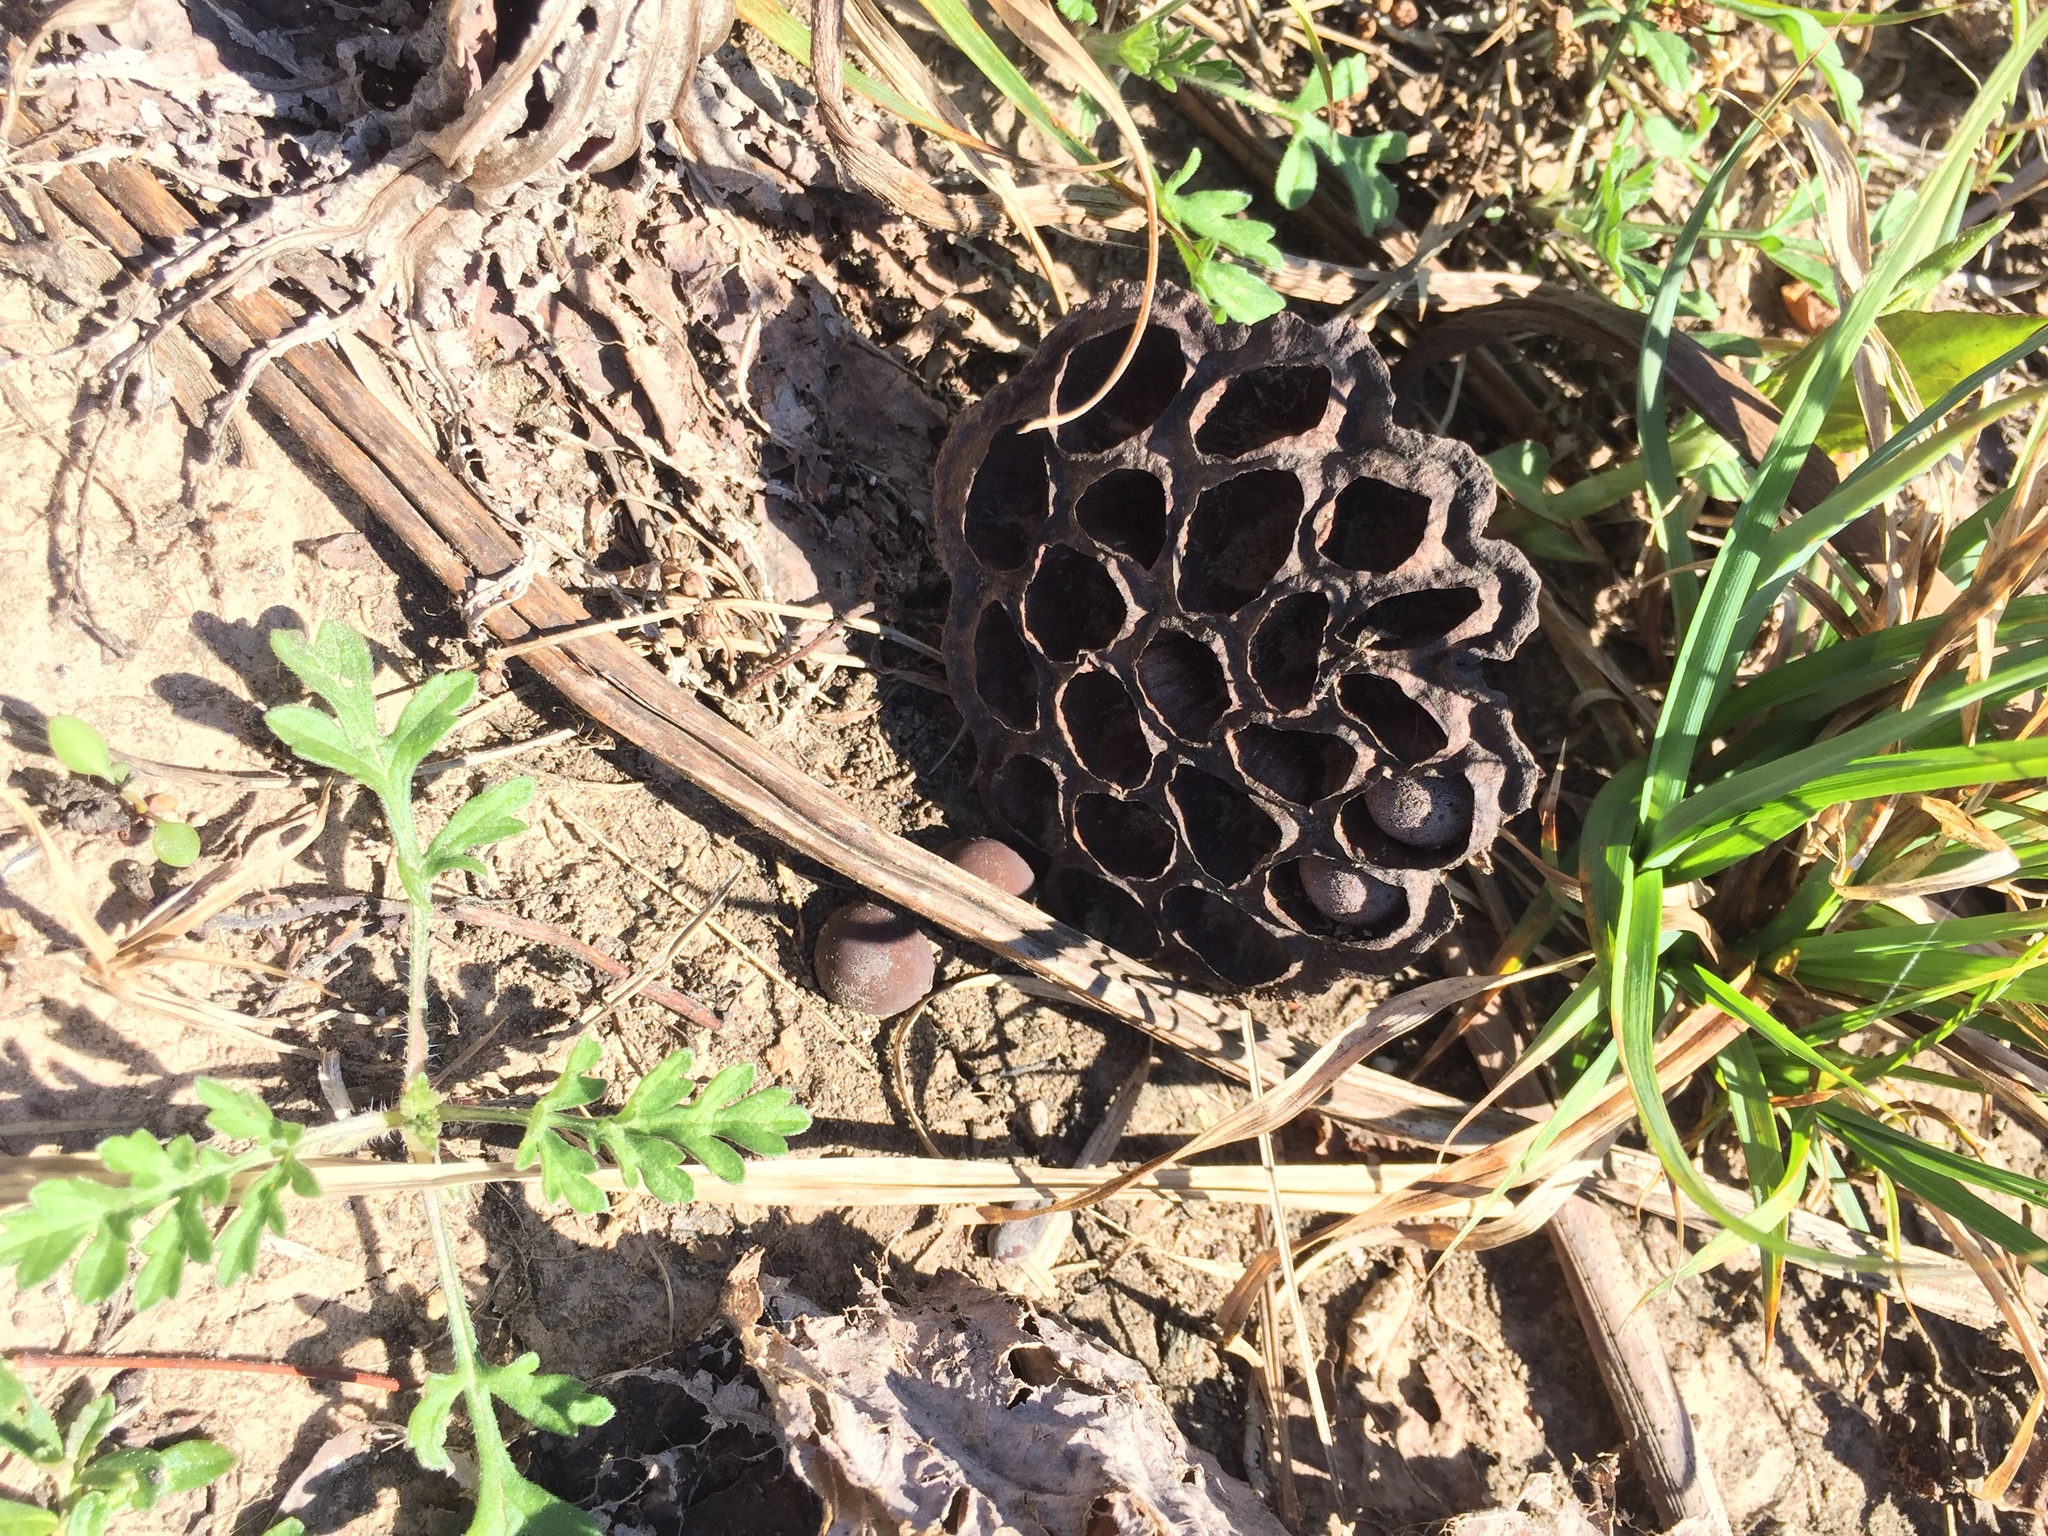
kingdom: Plantae
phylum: Tracheophyta
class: Magnoliopsida
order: Proteales
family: Nelumbonaceae
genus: Nelumbo
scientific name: Nelumbo lutea
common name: American lotus
